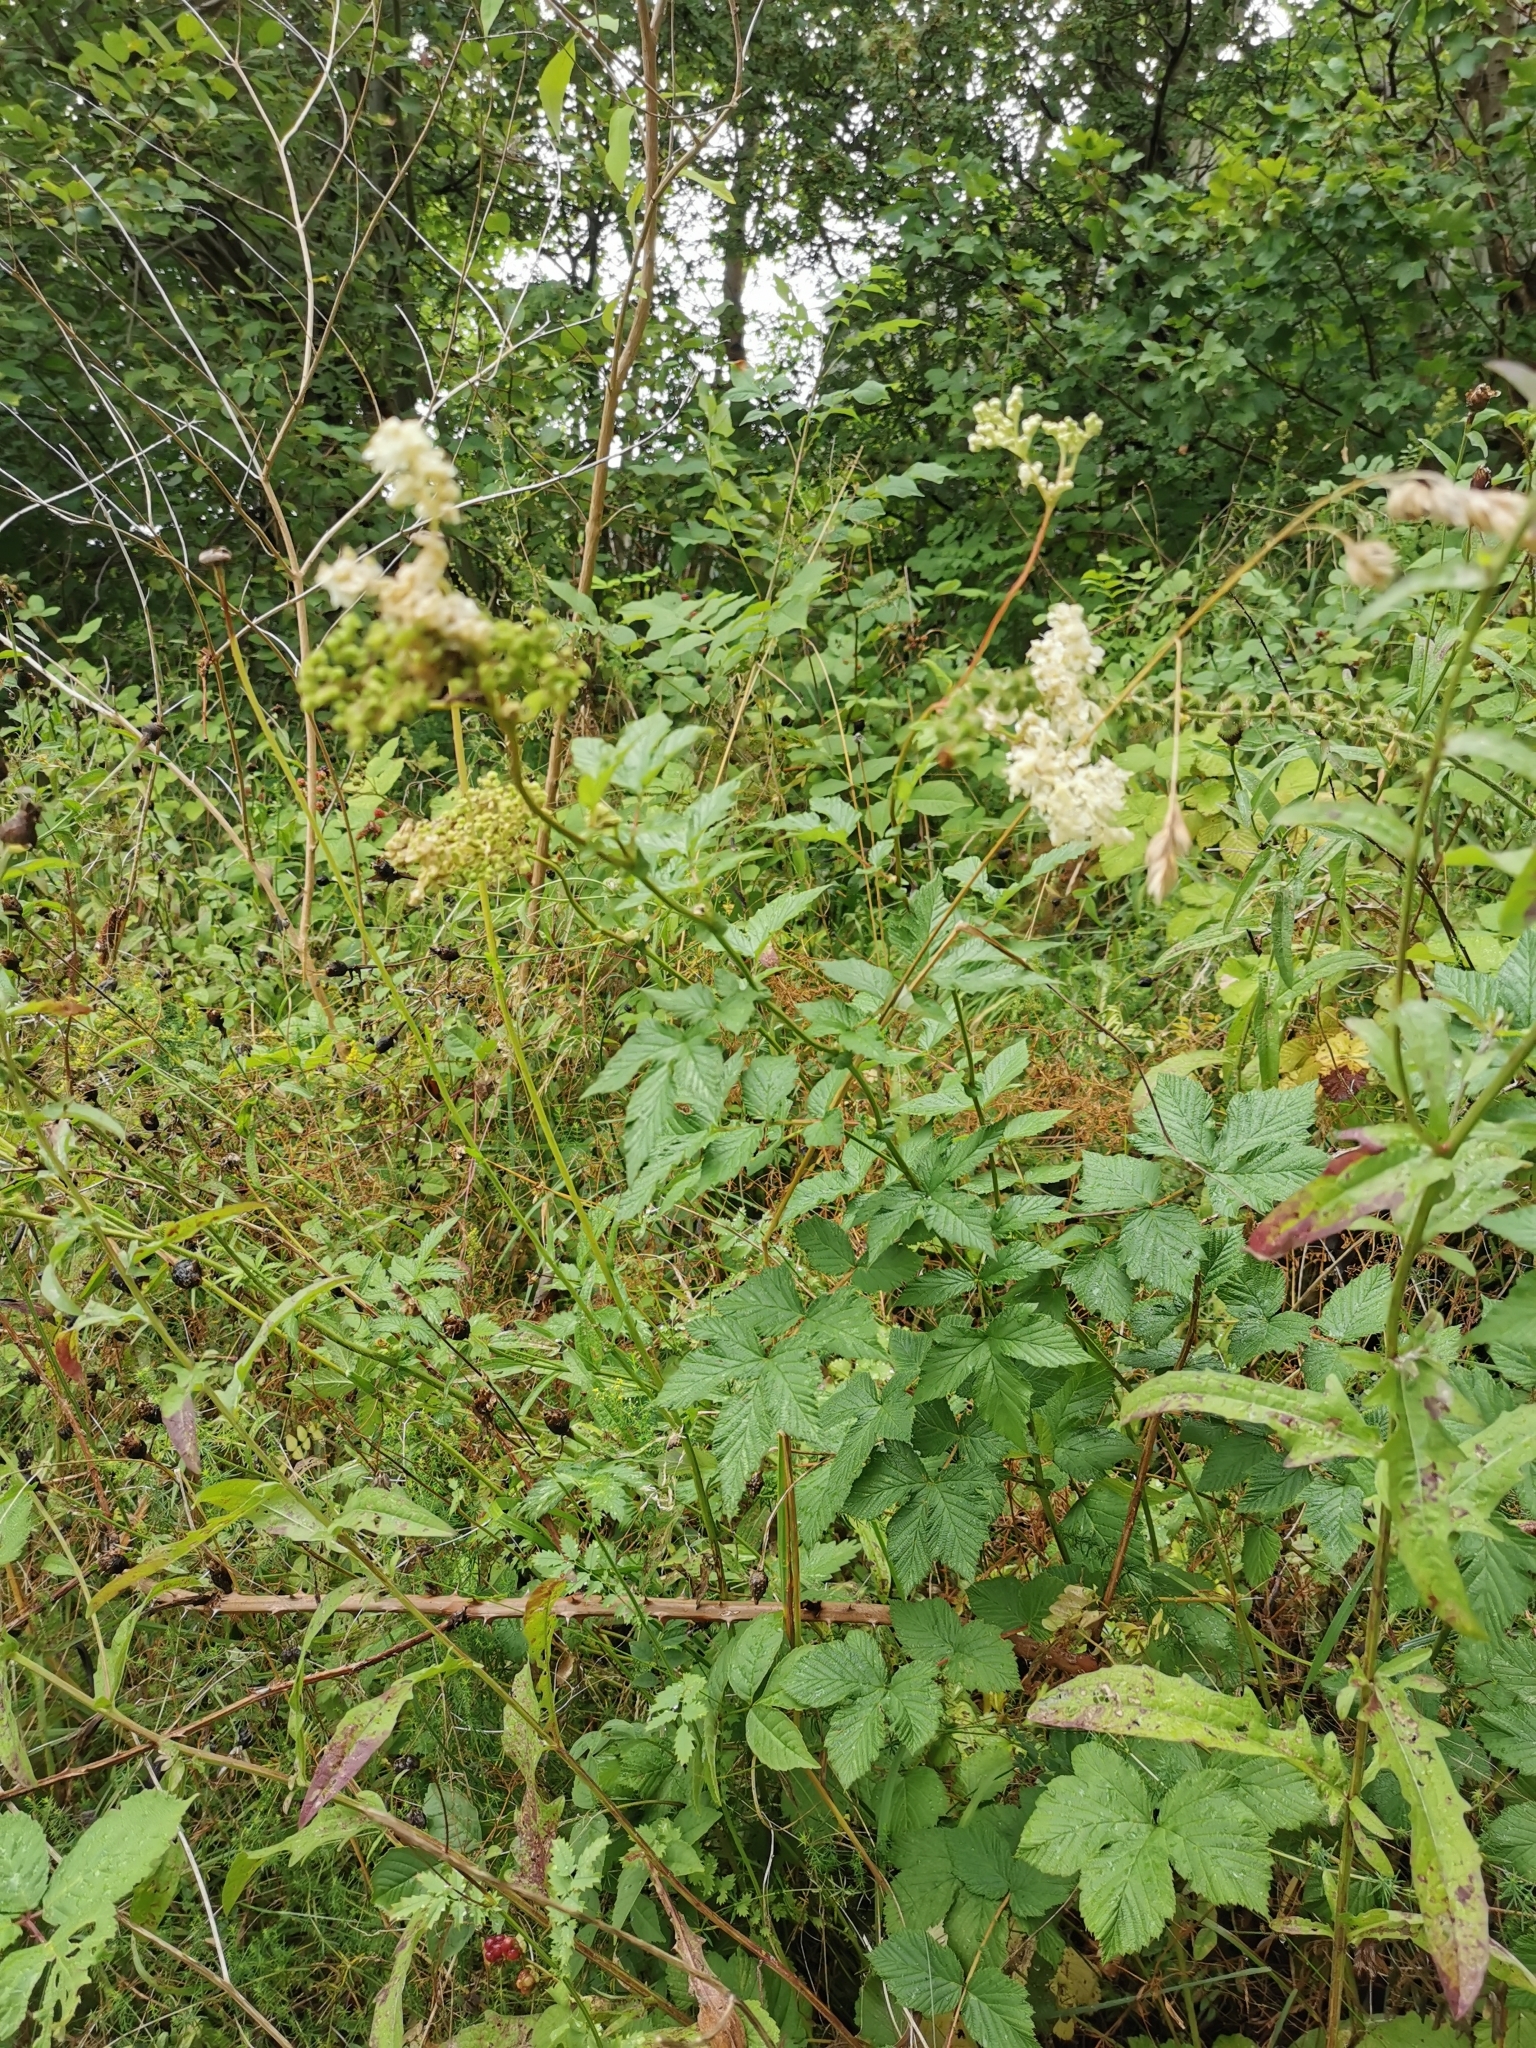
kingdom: Plantae
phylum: Tracheophyta
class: Magnoliopsida
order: Rosales
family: Rosaceae
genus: Filipendula
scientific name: Filipendula ulmaria
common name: Meadowsweet
